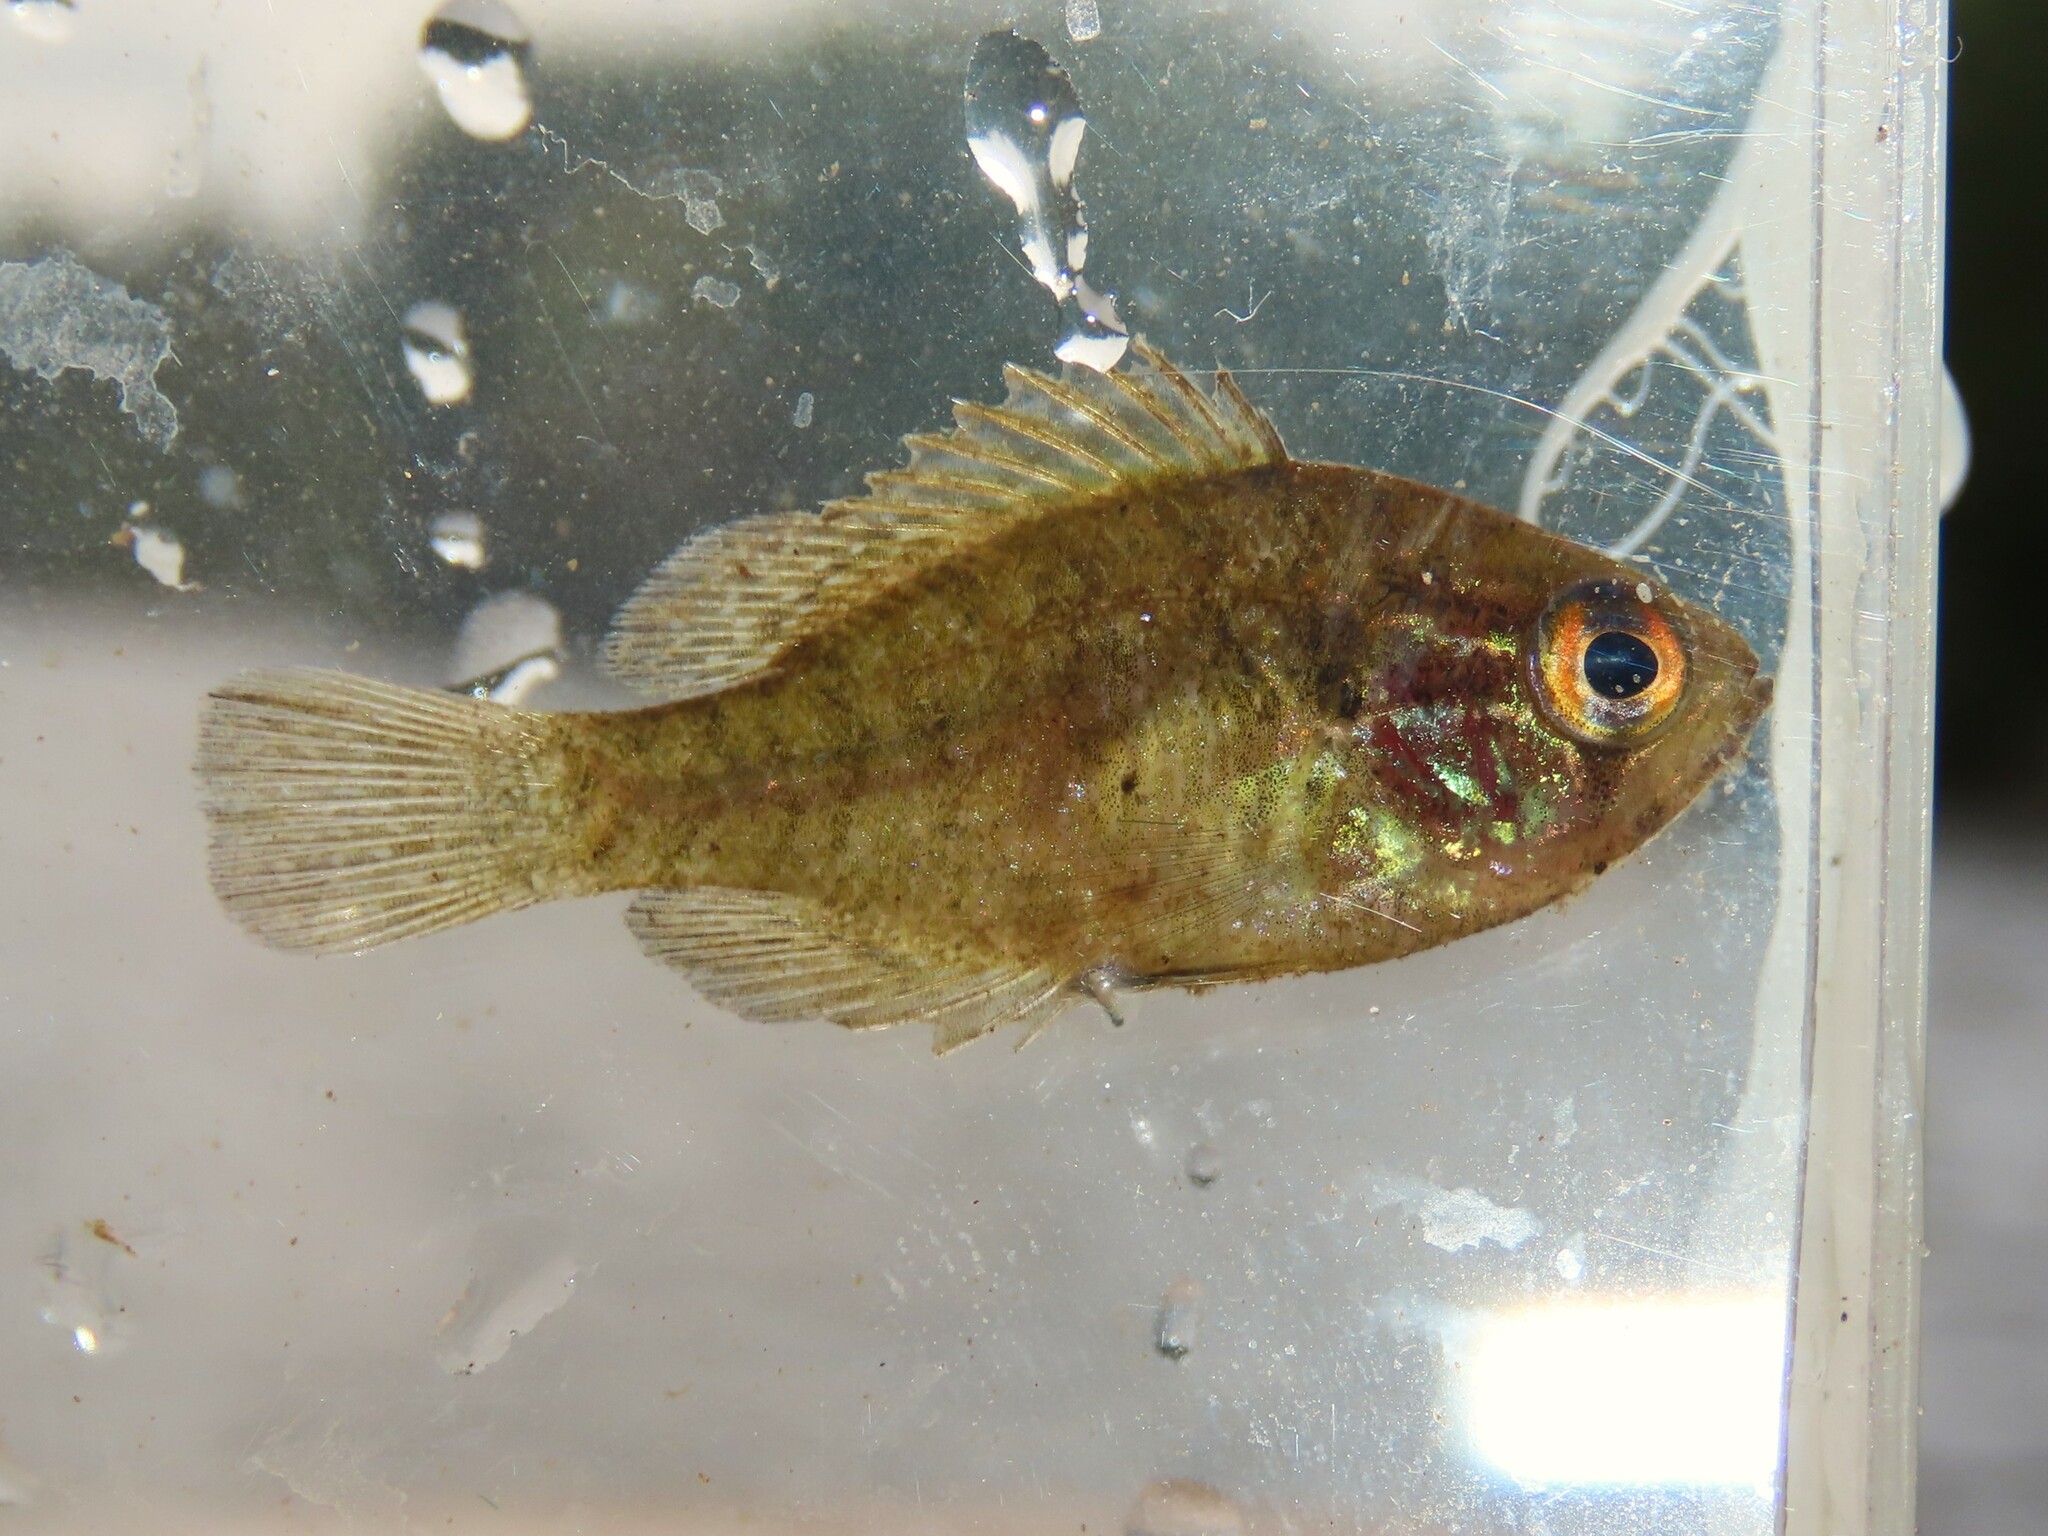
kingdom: Animalia
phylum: Chordata
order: Perciformes
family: Centrarchidae
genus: Enneacanthus
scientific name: Enneacanthus obesus
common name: Banded sunfish
